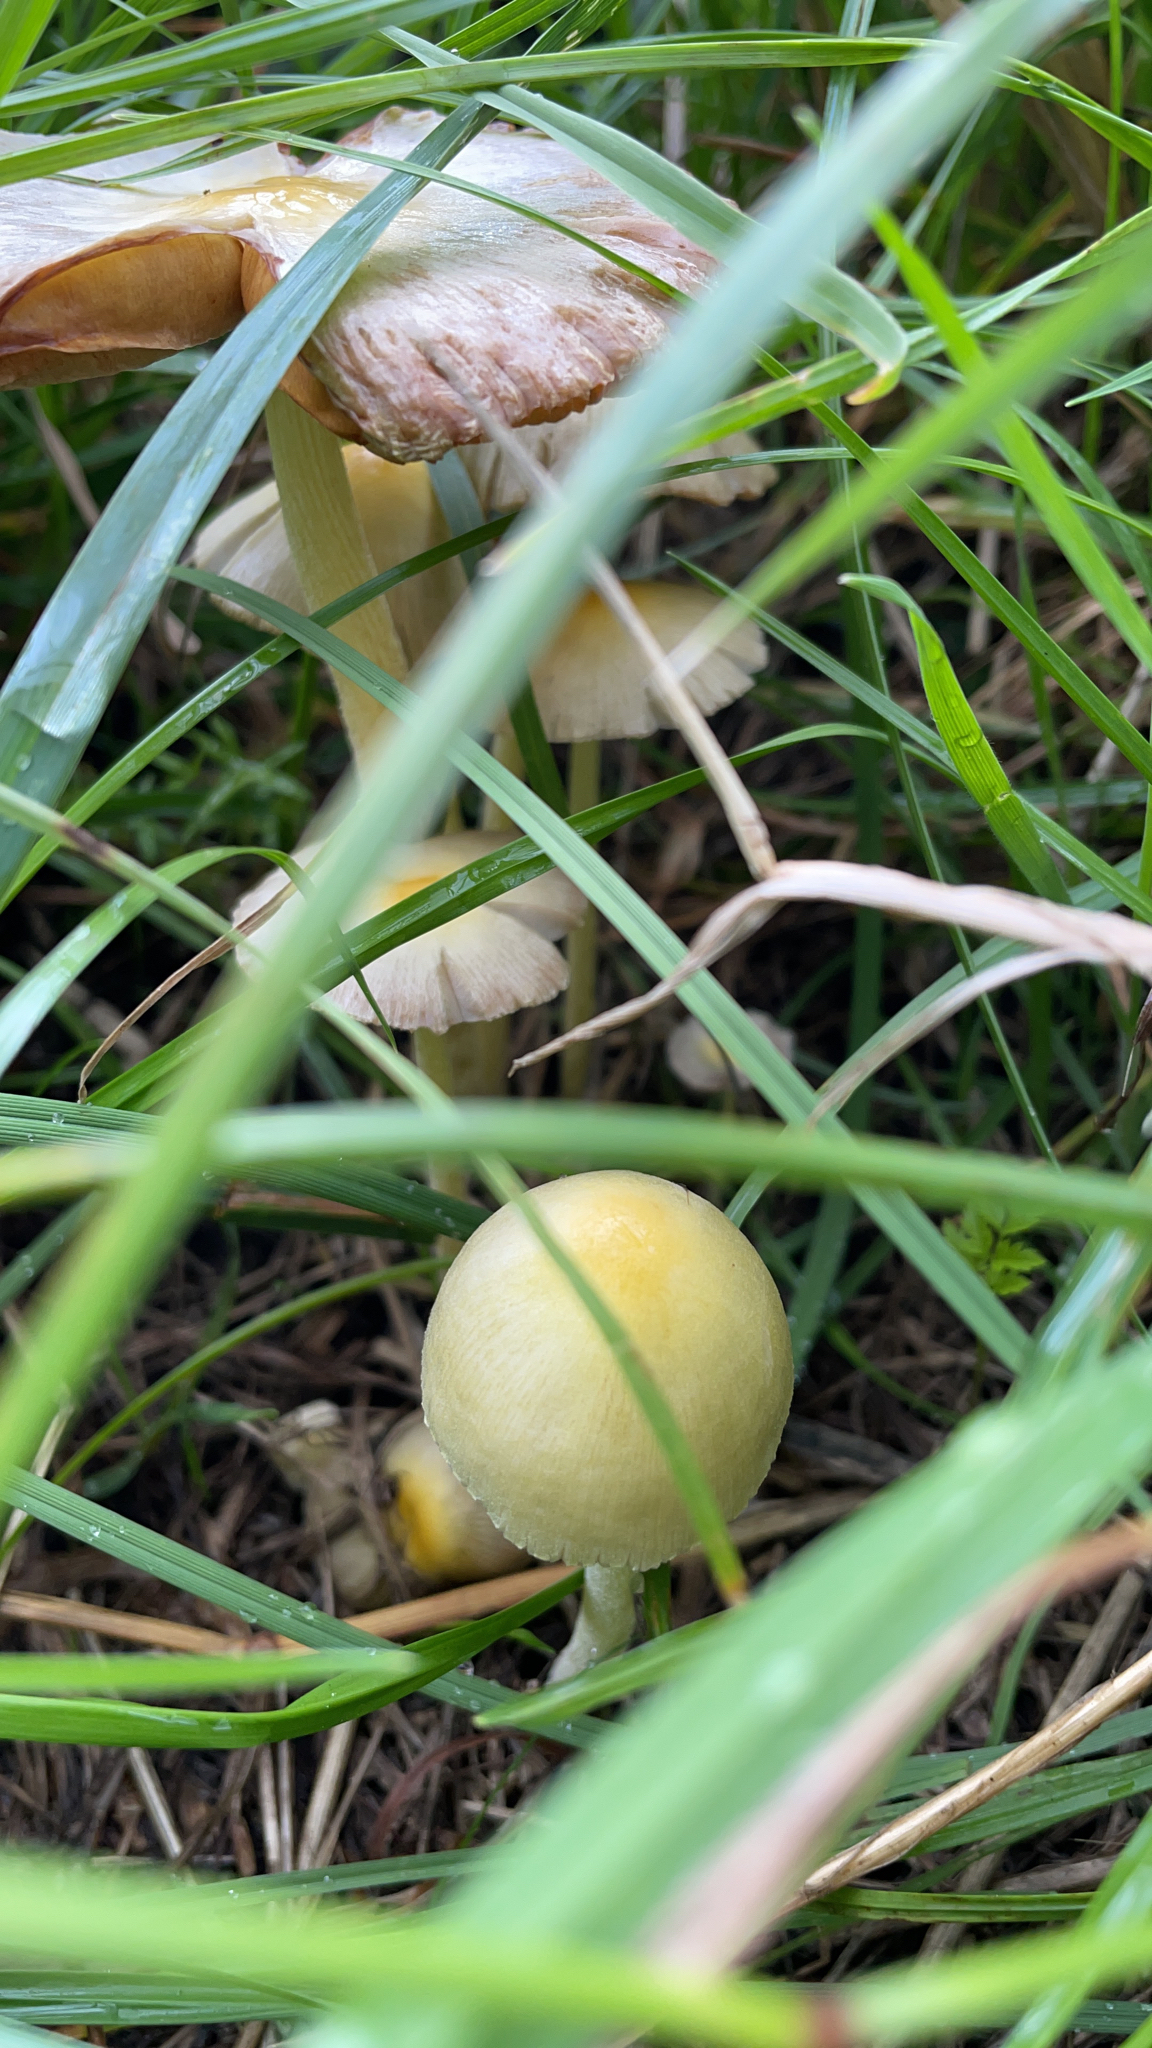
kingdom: Fungi
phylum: Basidiomycota
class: Agaricomycetes
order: Agaricales
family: Bolbitiaceae
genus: Bolbitius
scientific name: Bolbitius titubans
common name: Yellow fieldcap
